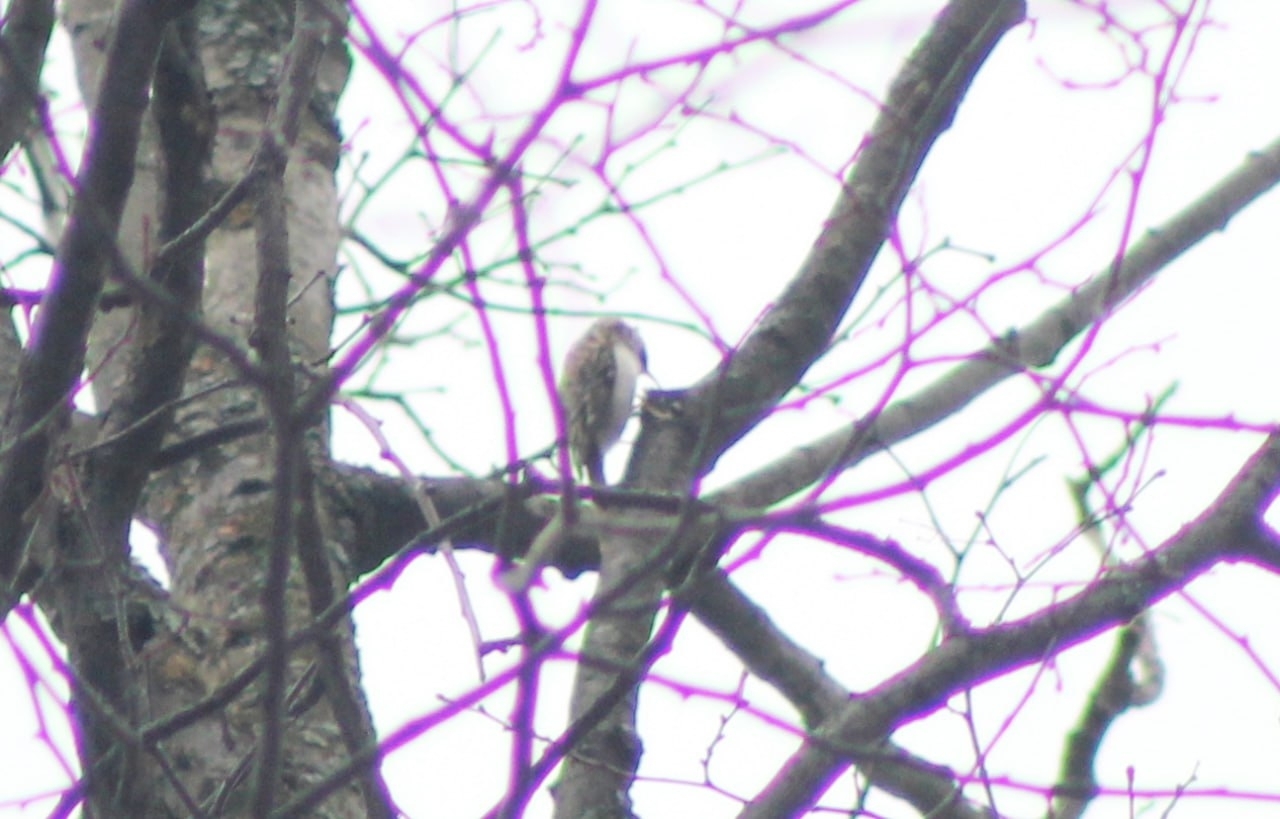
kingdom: Animalia
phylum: Chordata
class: Aves
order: Passeriformes
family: Certhiidae
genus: Certhia
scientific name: Certhia familiaris
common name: Eurasian treecreeper
